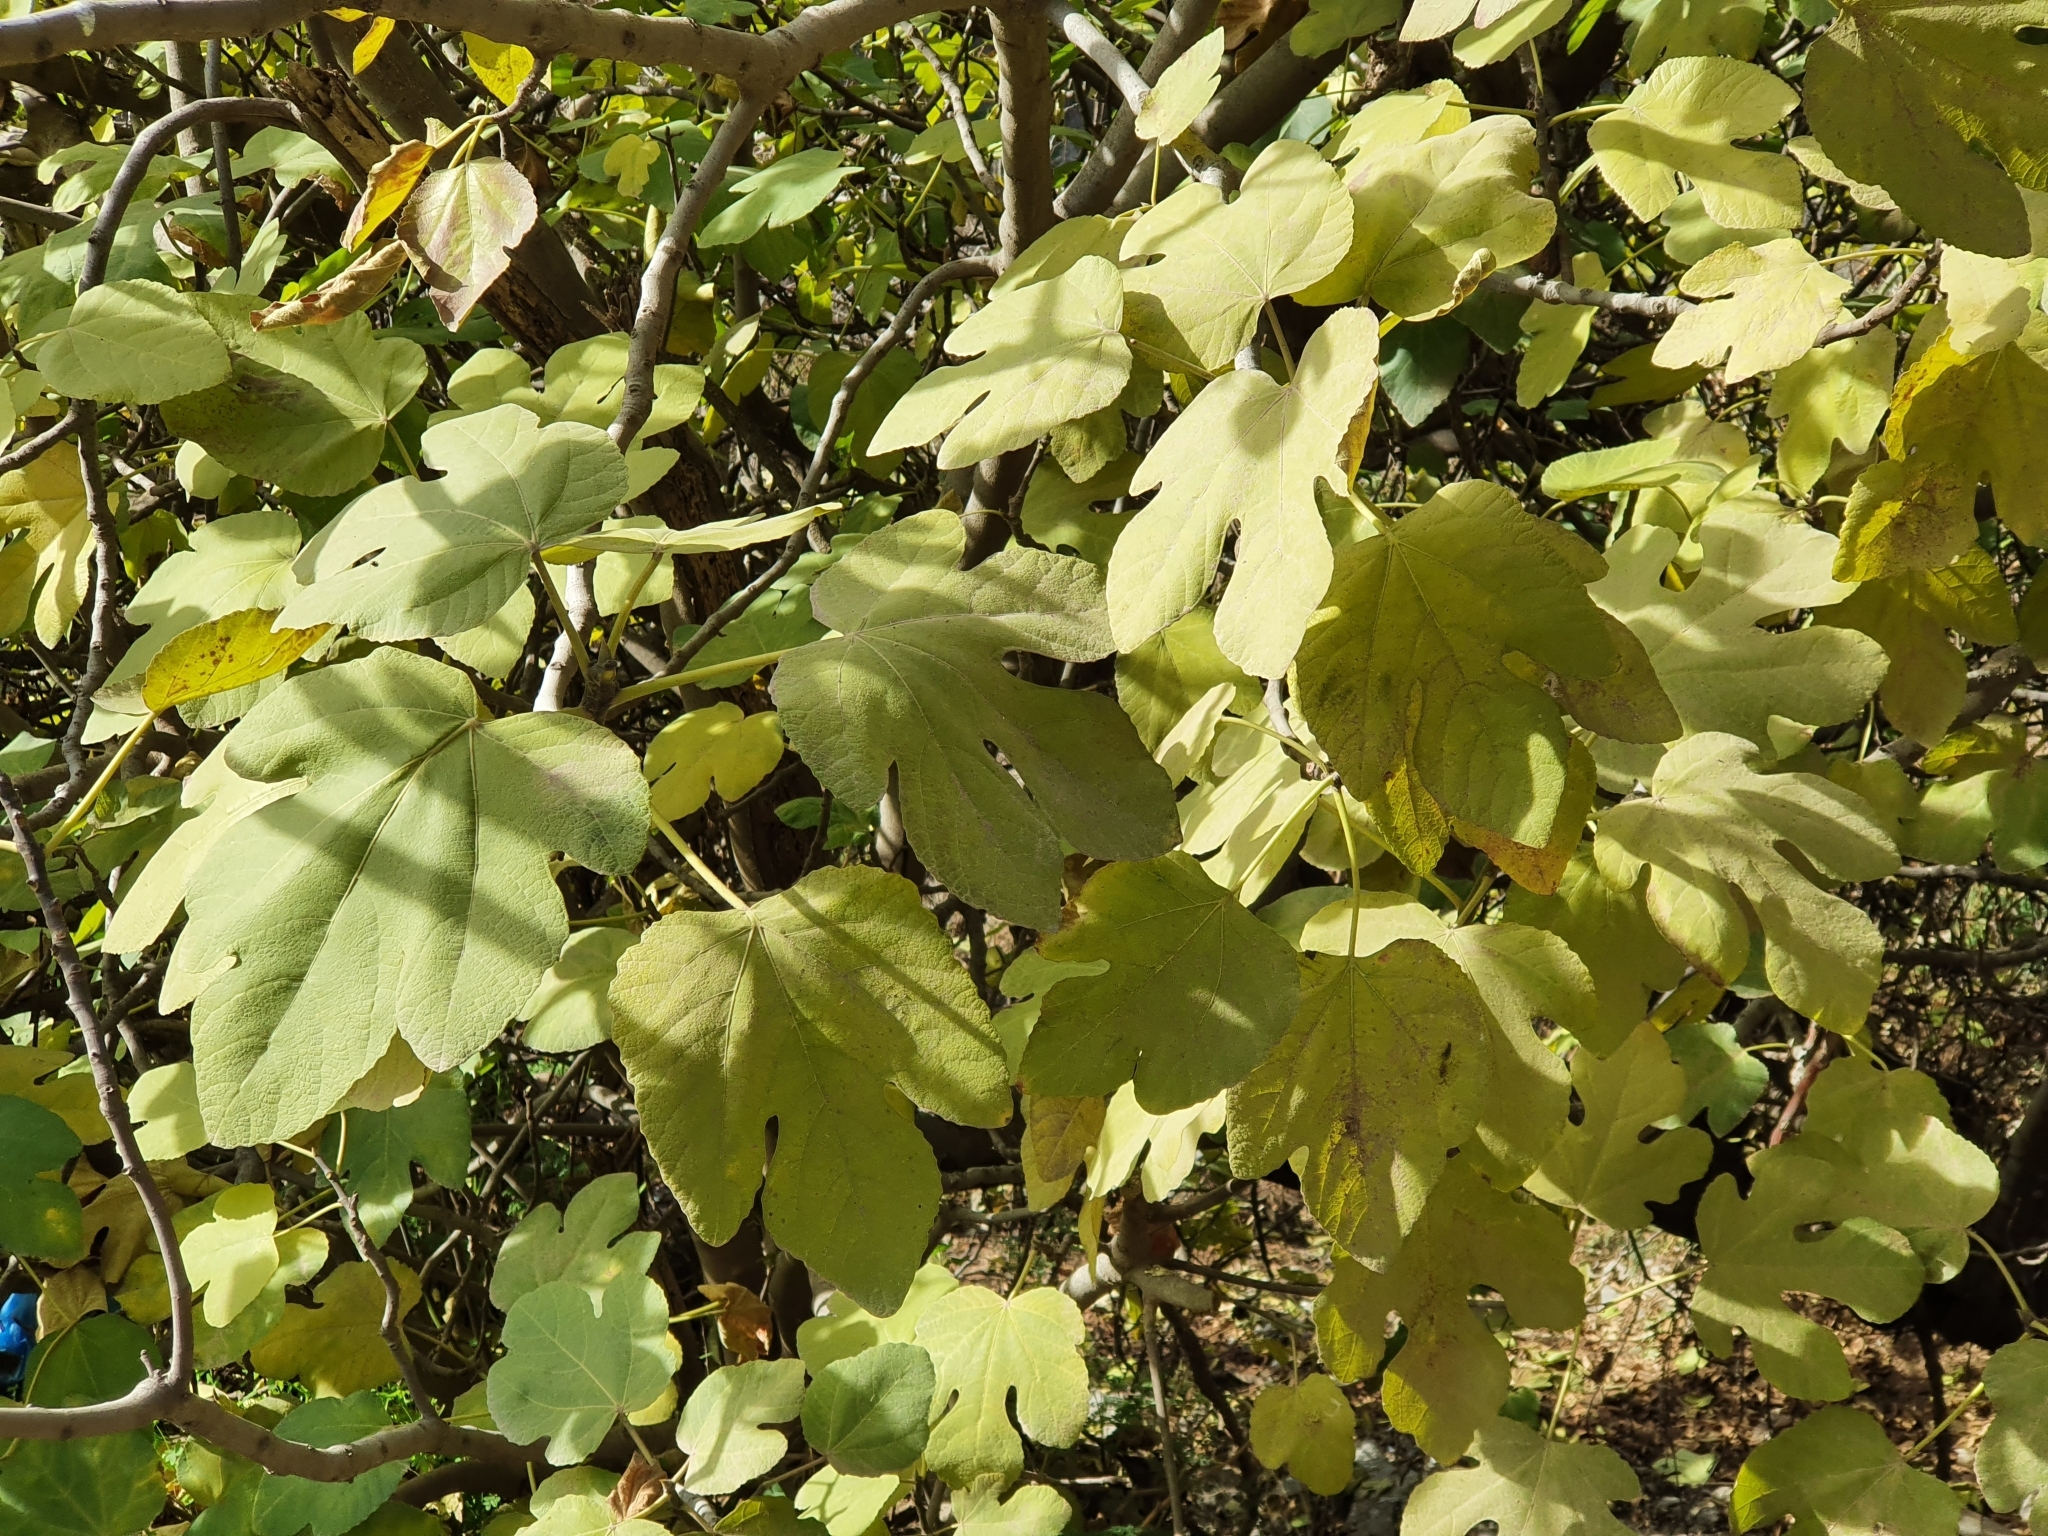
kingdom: Plantae
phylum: Tracheophyta
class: Magnoliopsida
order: Rosales
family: Moraceae
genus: Ficus
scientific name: Ficus carica
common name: Fig
